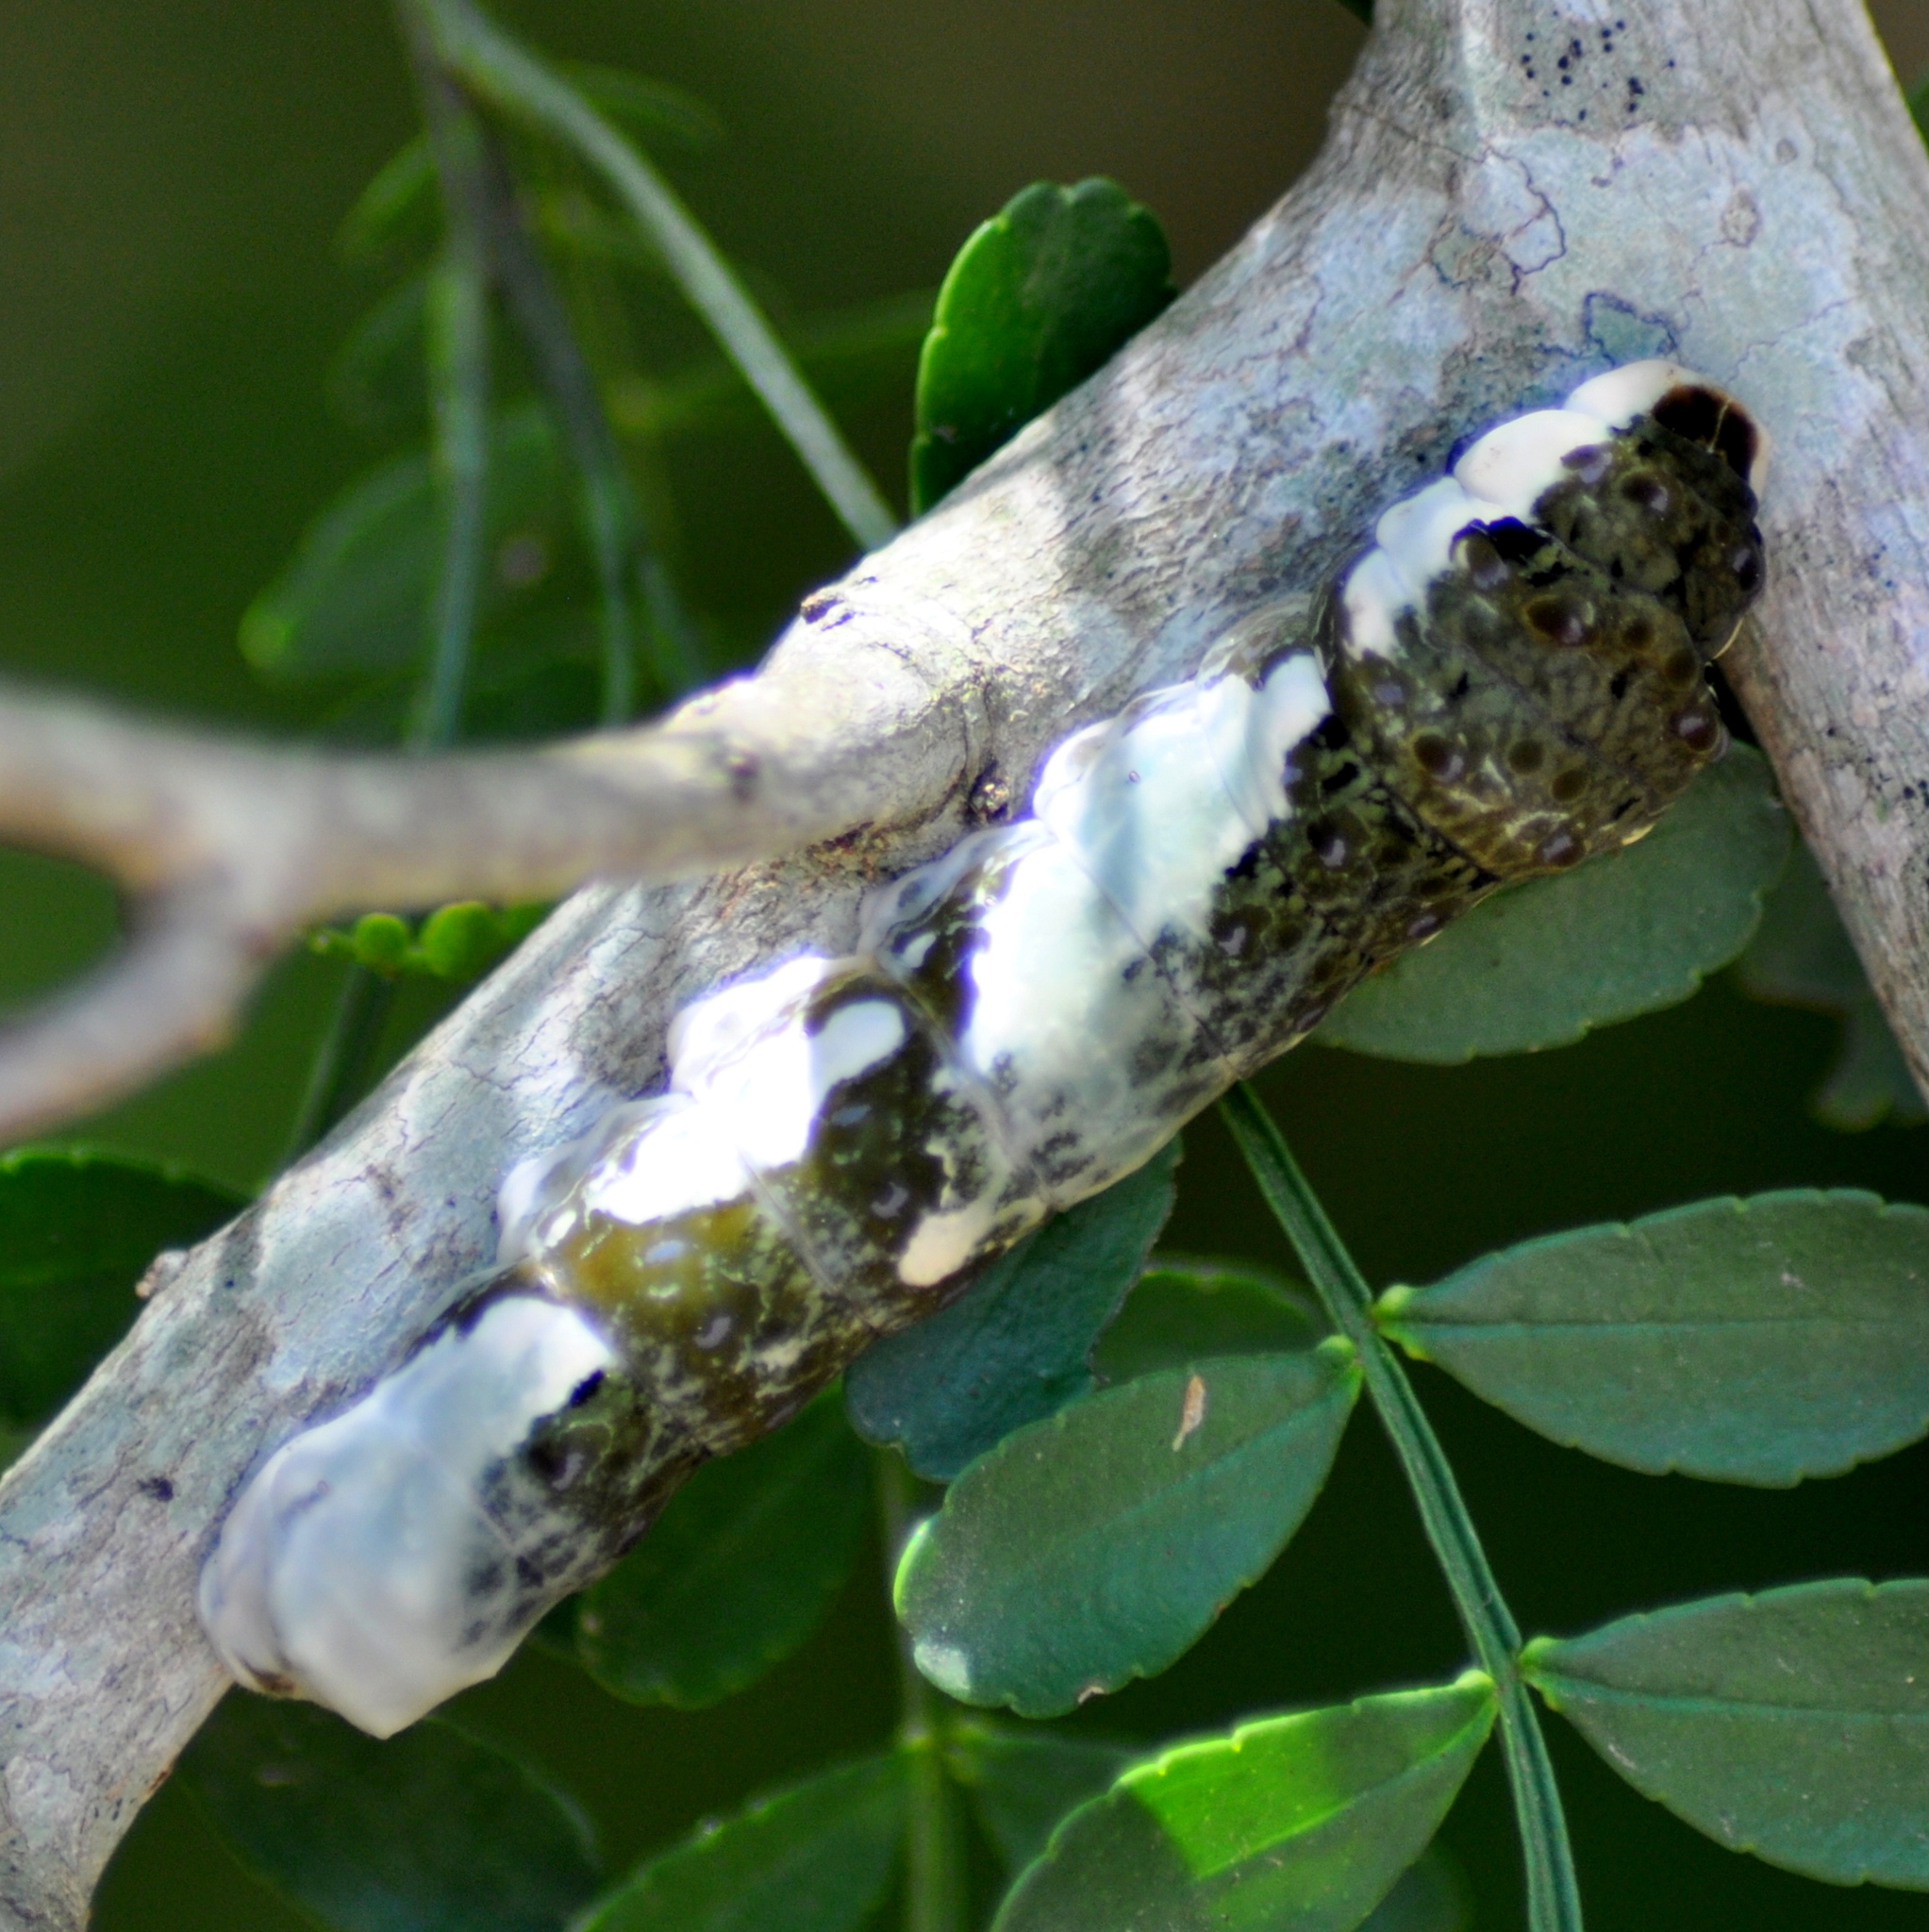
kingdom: Animalia
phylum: Arthropoda
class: Insecta
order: Lepidoptera
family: Papilionidae
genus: Papilio
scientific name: Papilio astyalus
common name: Astyalus swallowtail
